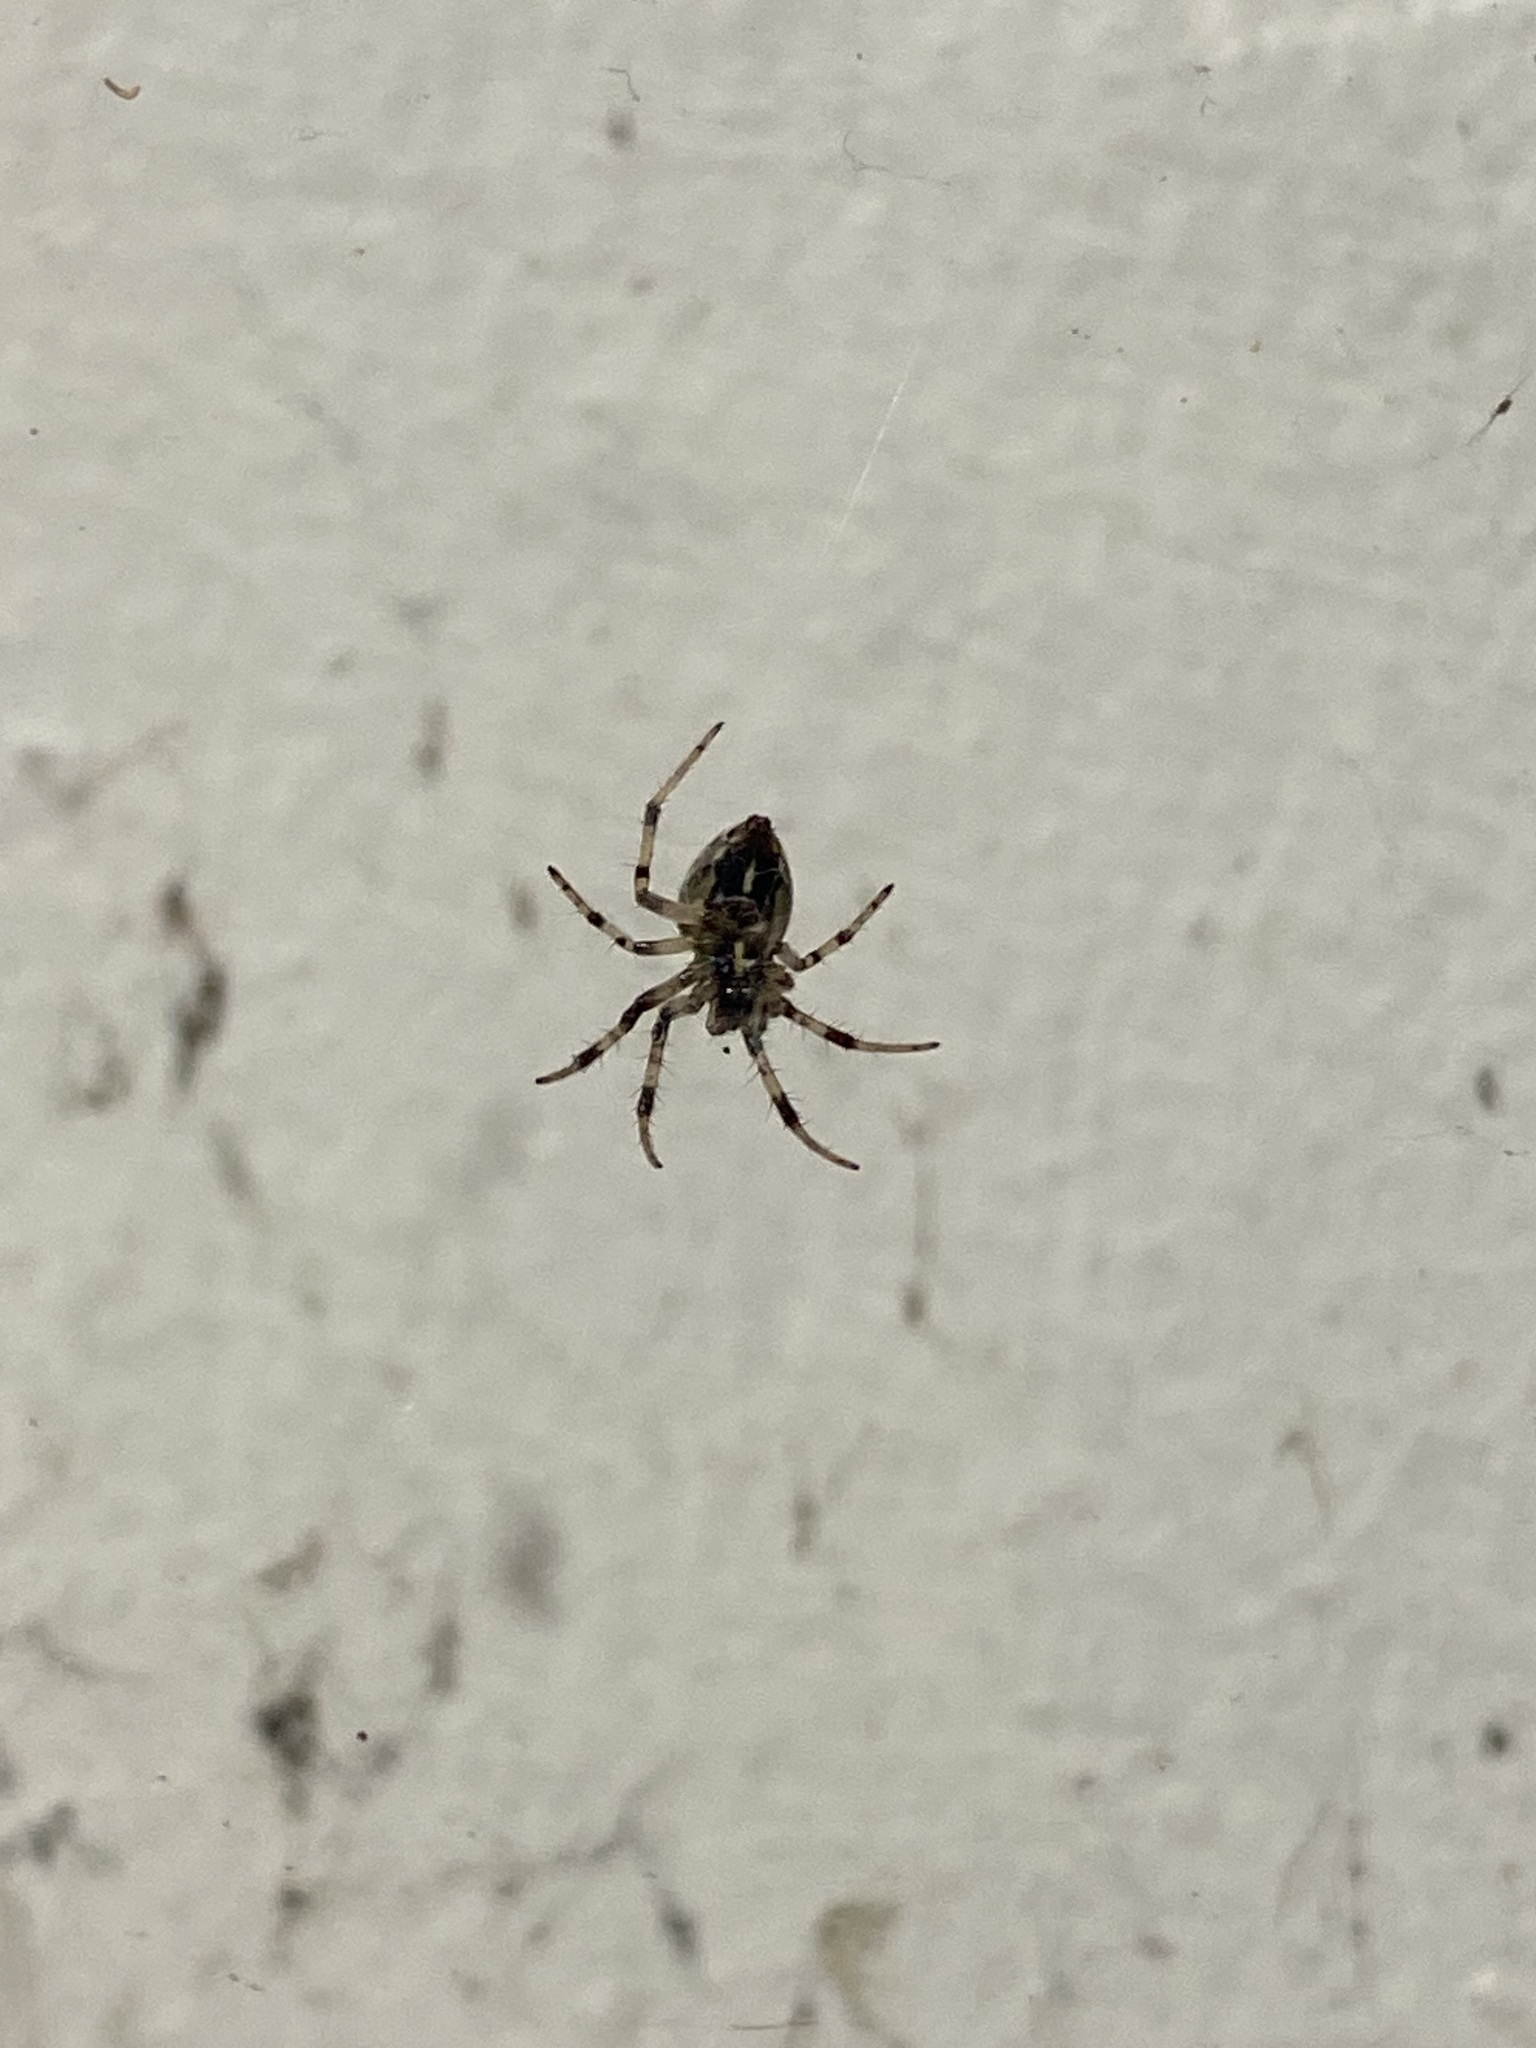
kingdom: Animalia
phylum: Arthropoda
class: Arachnida
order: Araneae
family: Araneidae
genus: Metepeira
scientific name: Metepeira
